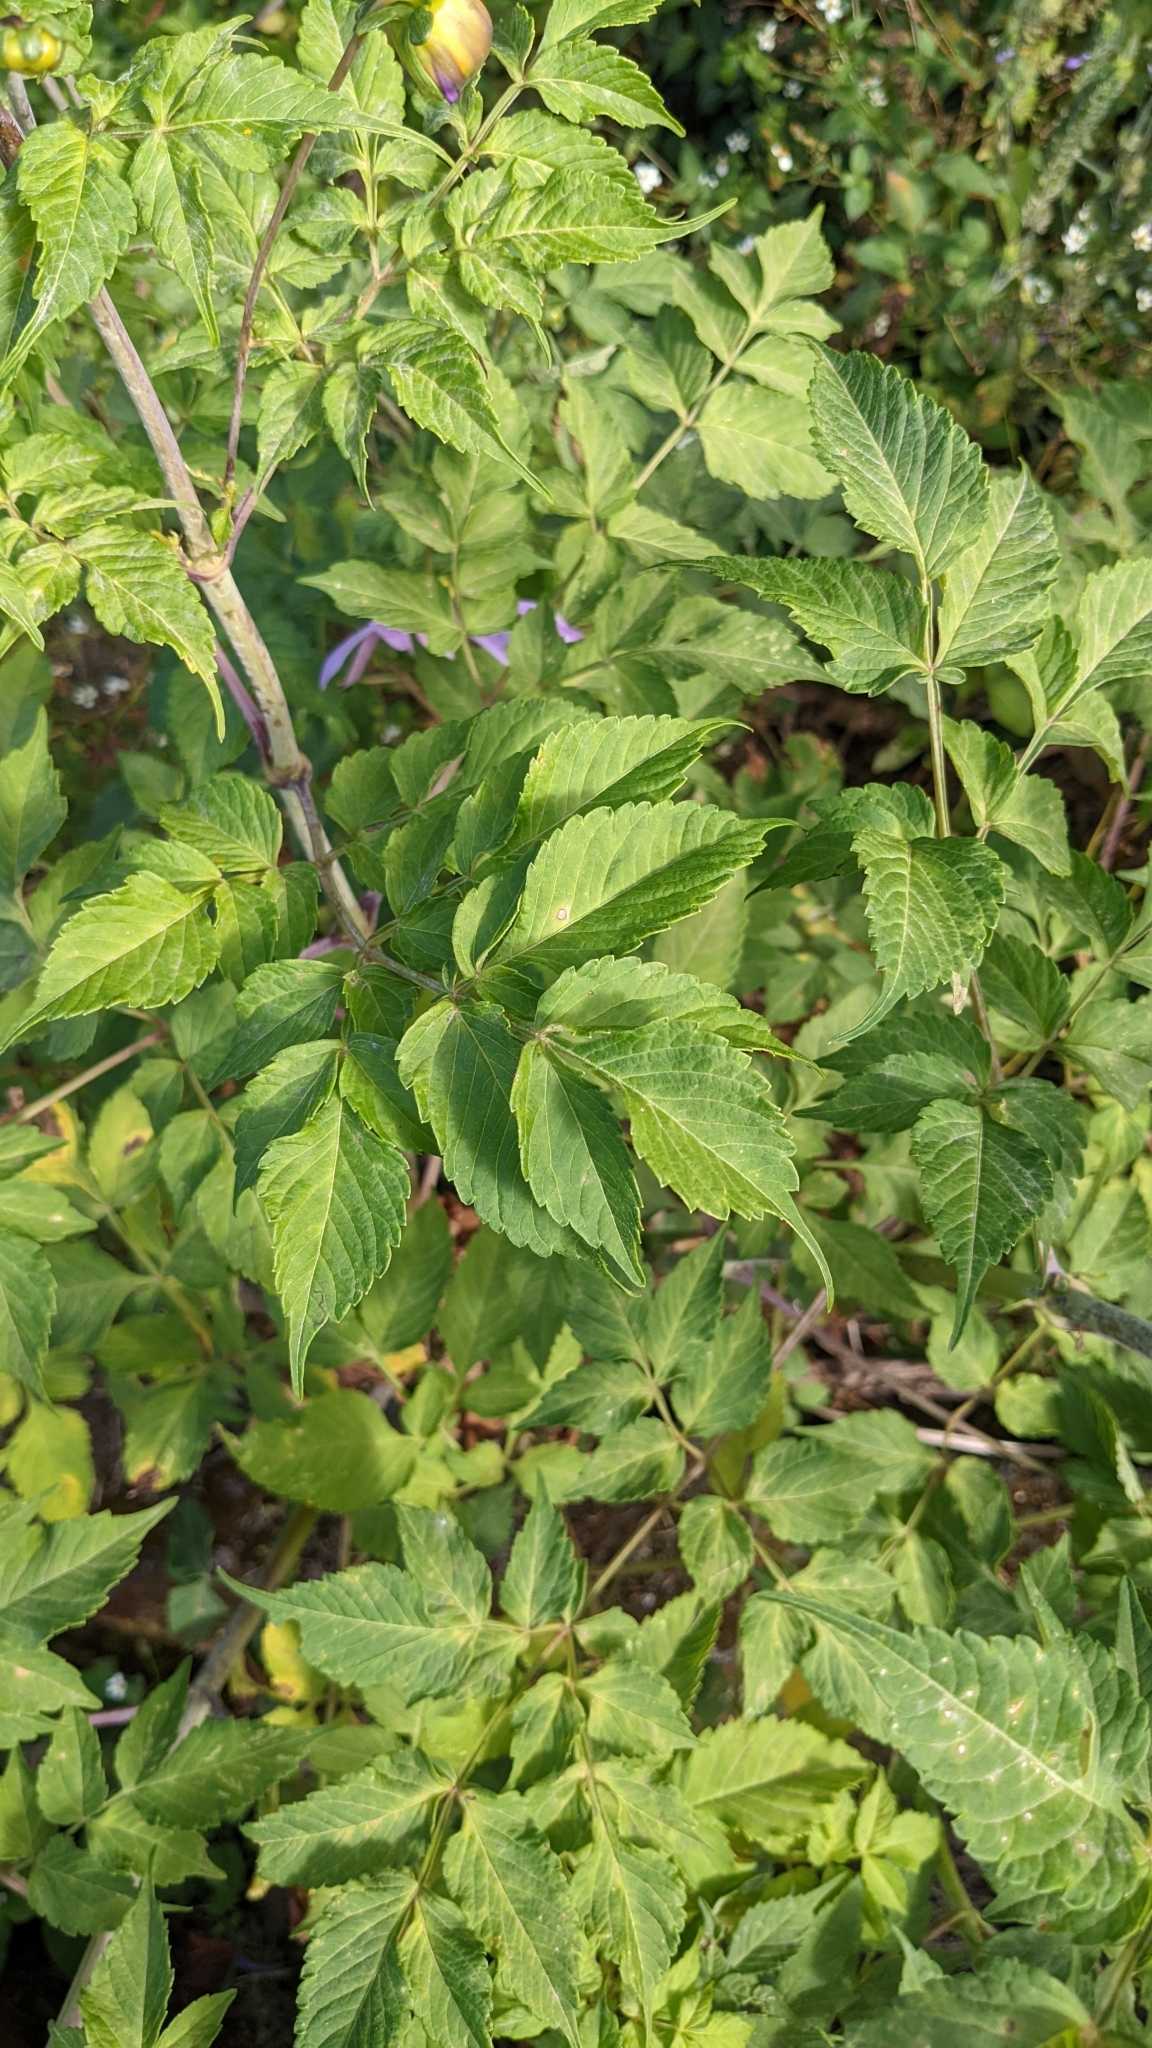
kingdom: Plantae
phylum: Tracheophyta
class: Magnoliopsida
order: Asterales
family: Asteraceae
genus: Dahlia
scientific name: Dahlia imperialis
